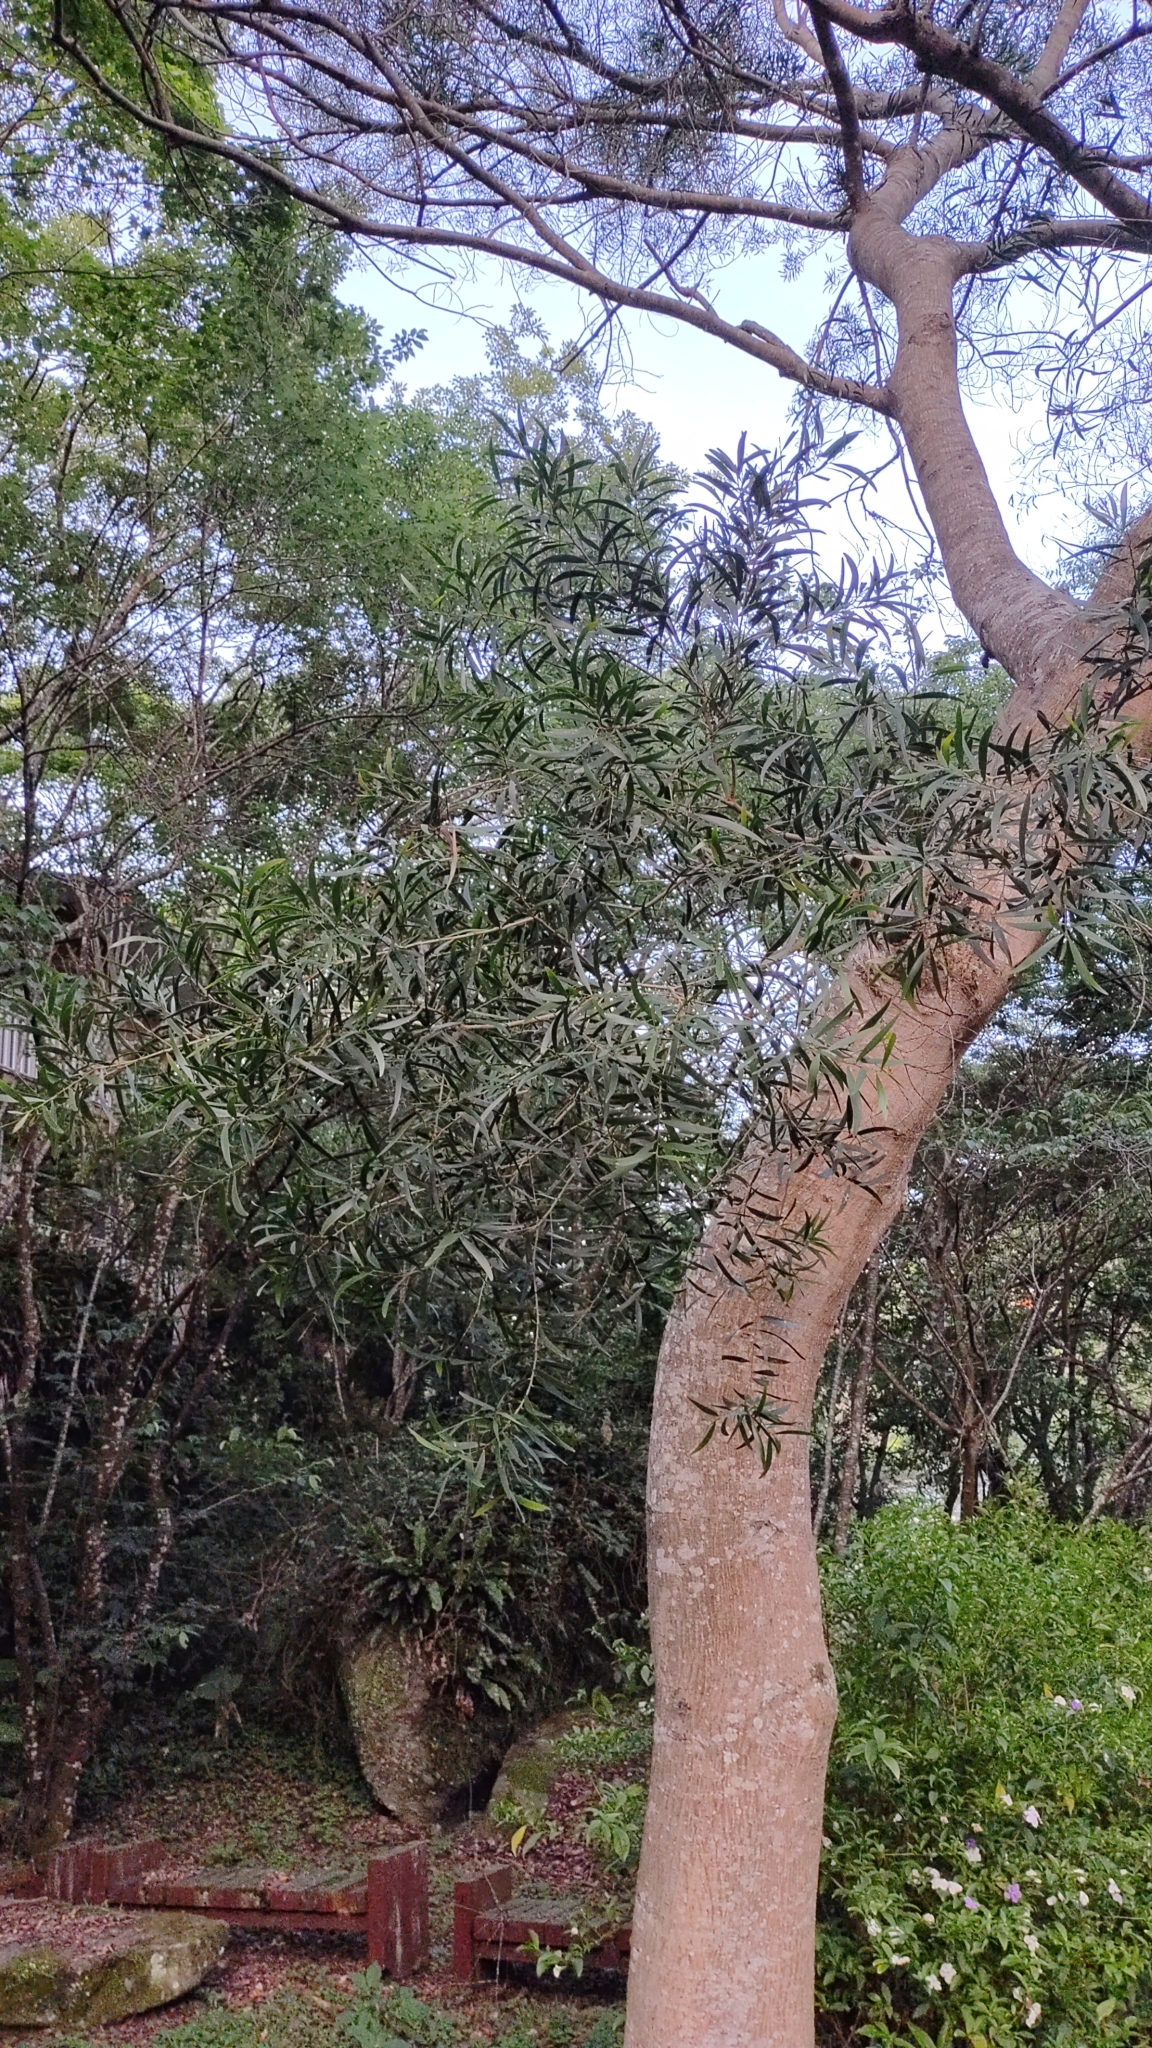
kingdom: Plantae
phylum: Tracheophyta
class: Magnoliopsida
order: Fabales
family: Fabaceae
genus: Acacia
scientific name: Acacia confusa
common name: Formosan koa
